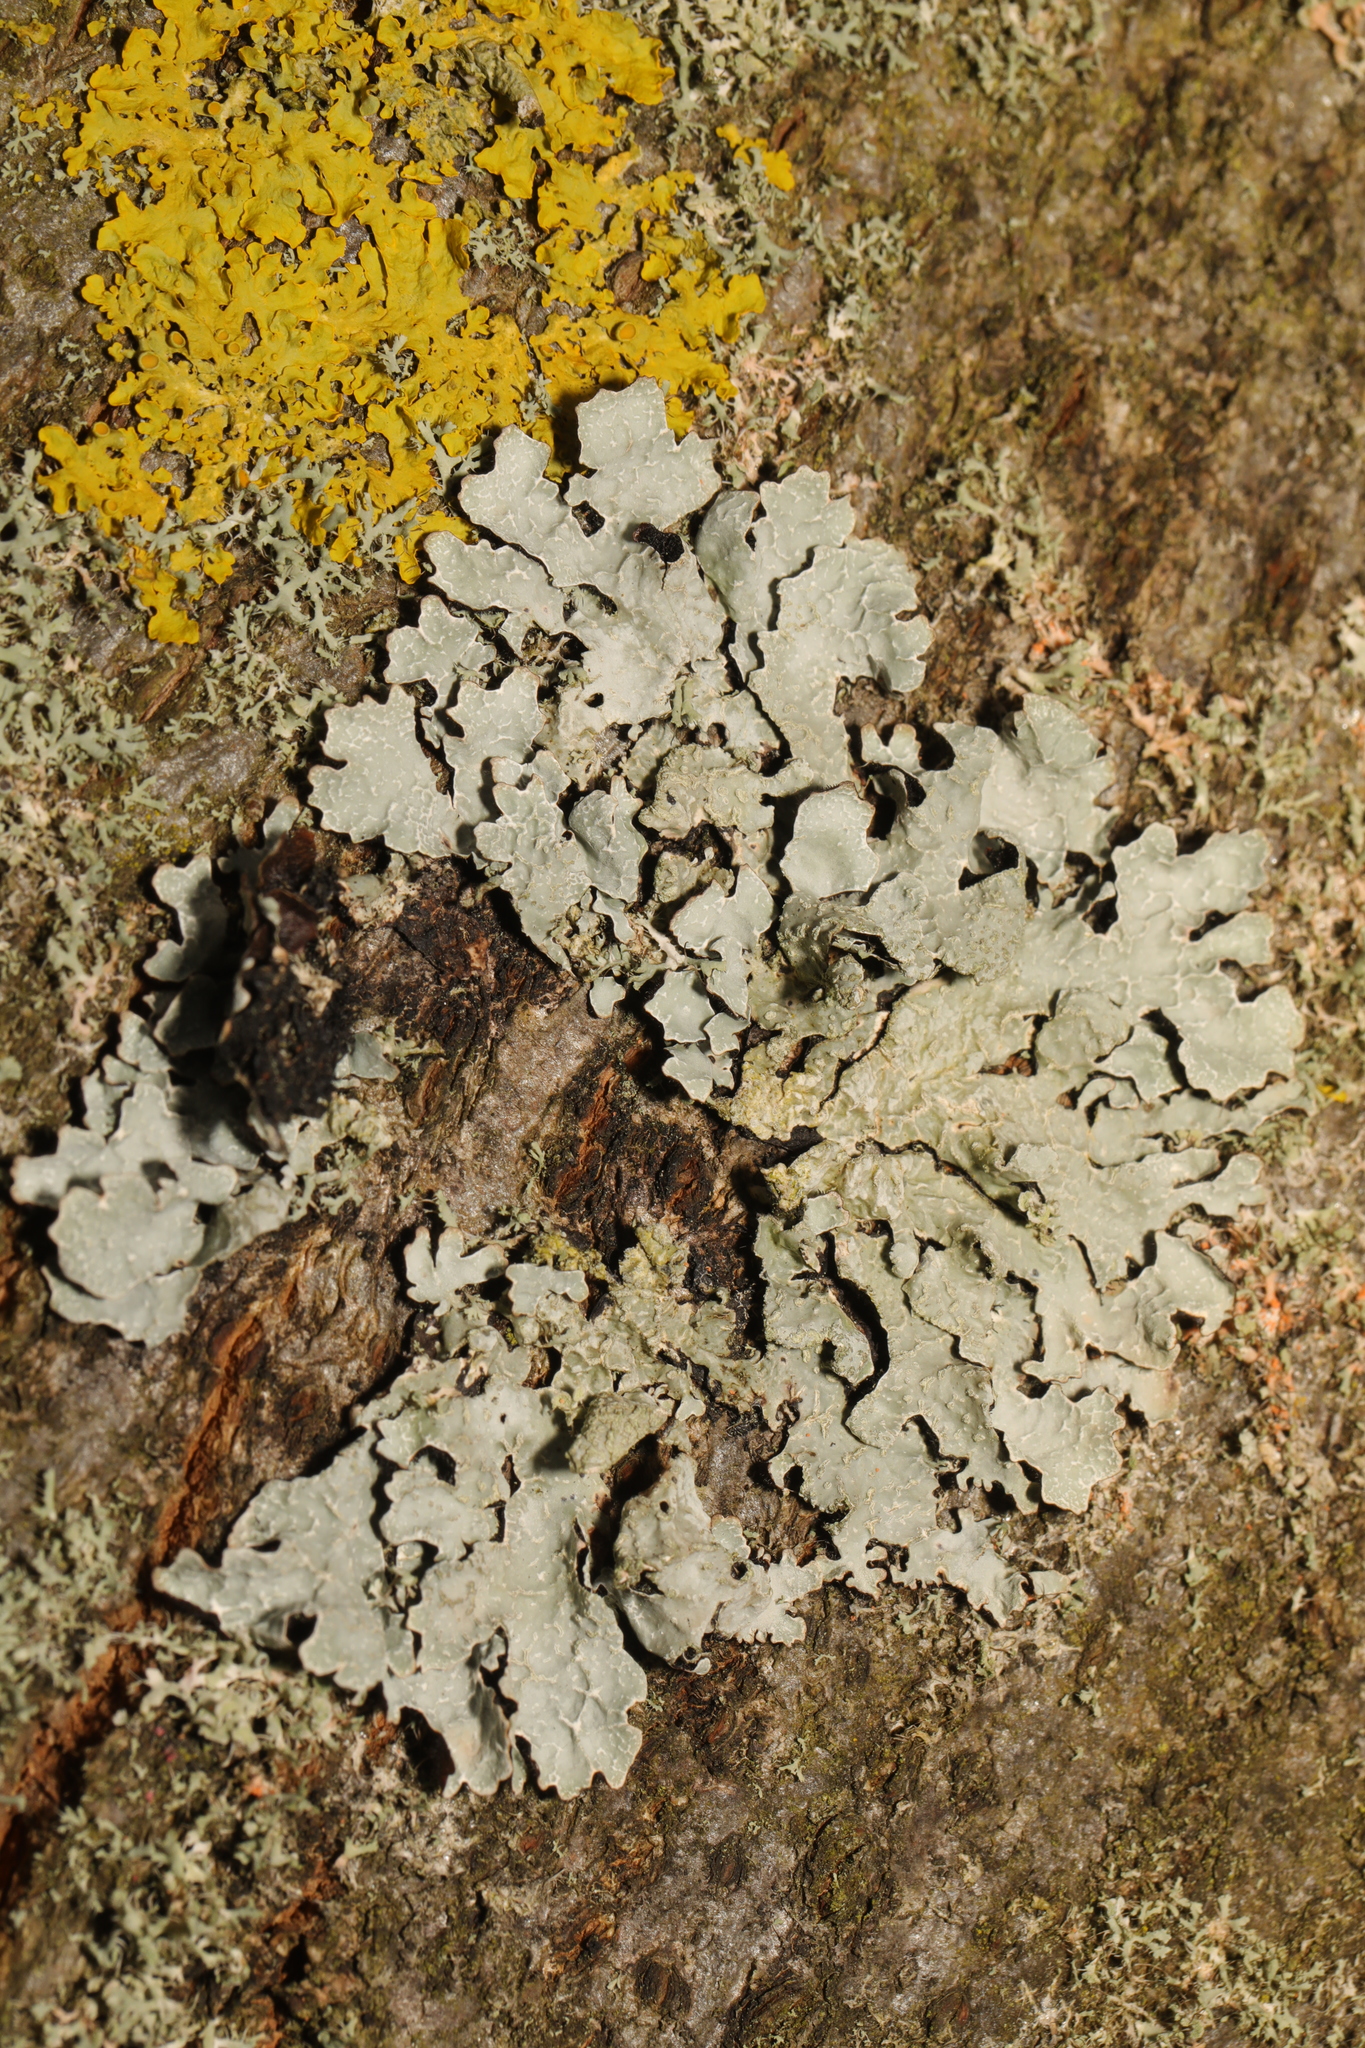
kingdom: Fungi
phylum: Ascomycota
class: Lecanoromycetes
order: Lecanorales
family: Parmeliaceae
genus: Parmelia
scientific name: Parmelia sulcata
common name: Netted shield lichen
